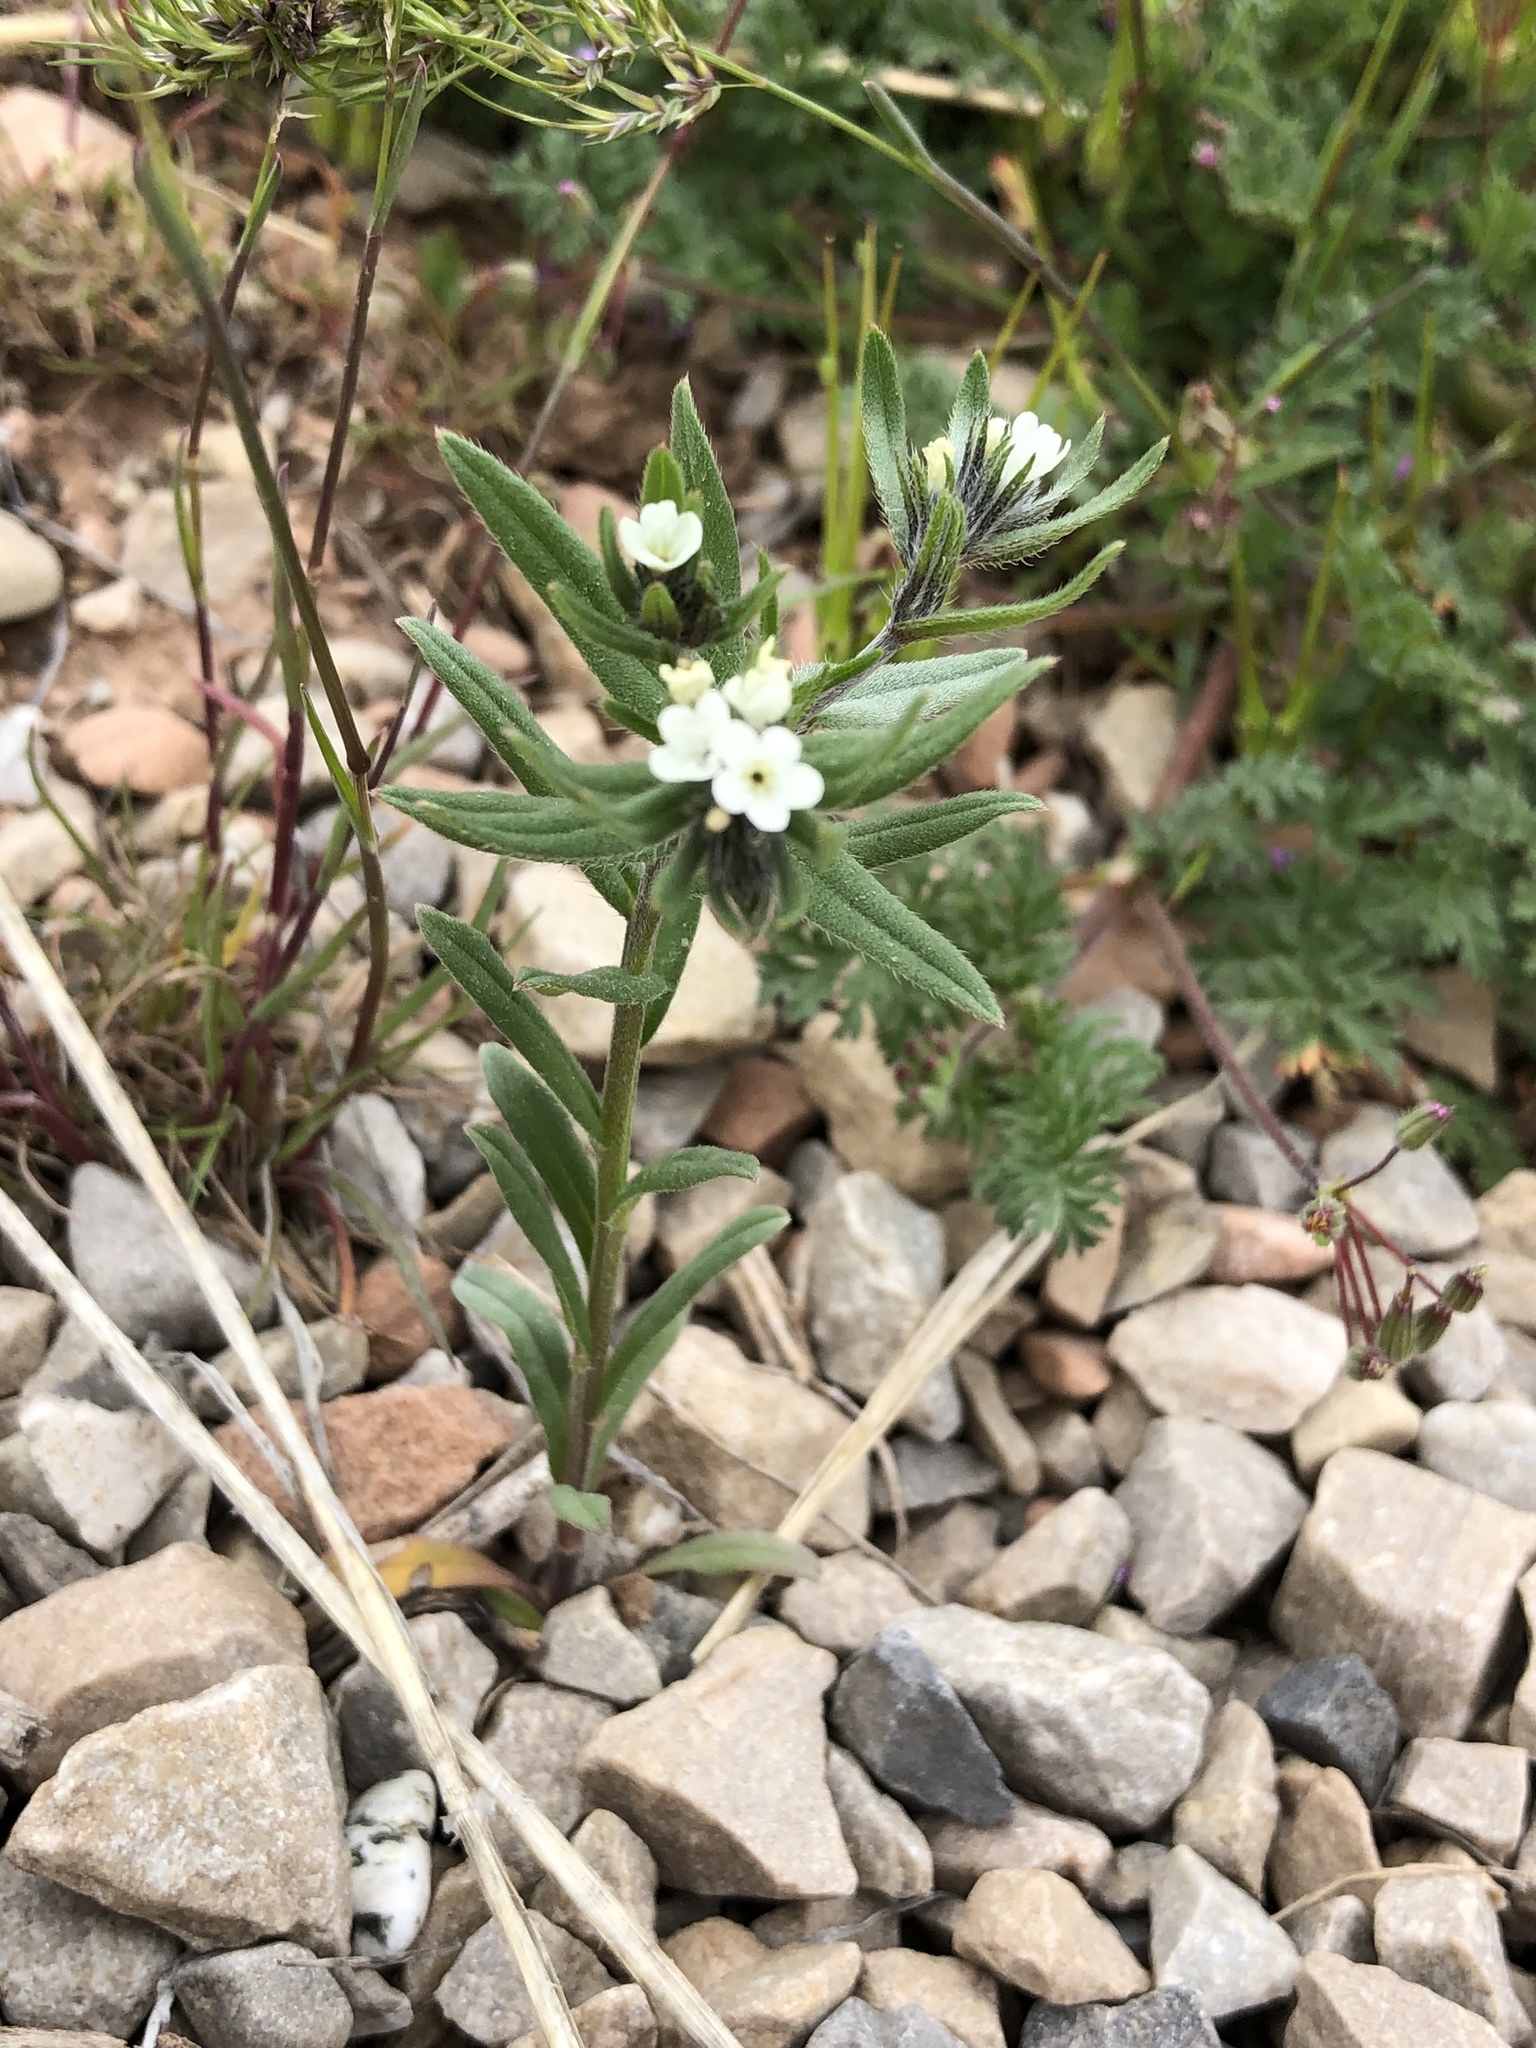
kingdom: Plantae
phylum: Tracheophyta
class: Magnoliopsida
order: Boraginales
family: Boraginaceae
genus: Buglossoides
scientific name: Buglossoides arvensis
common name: Corn gromwell
